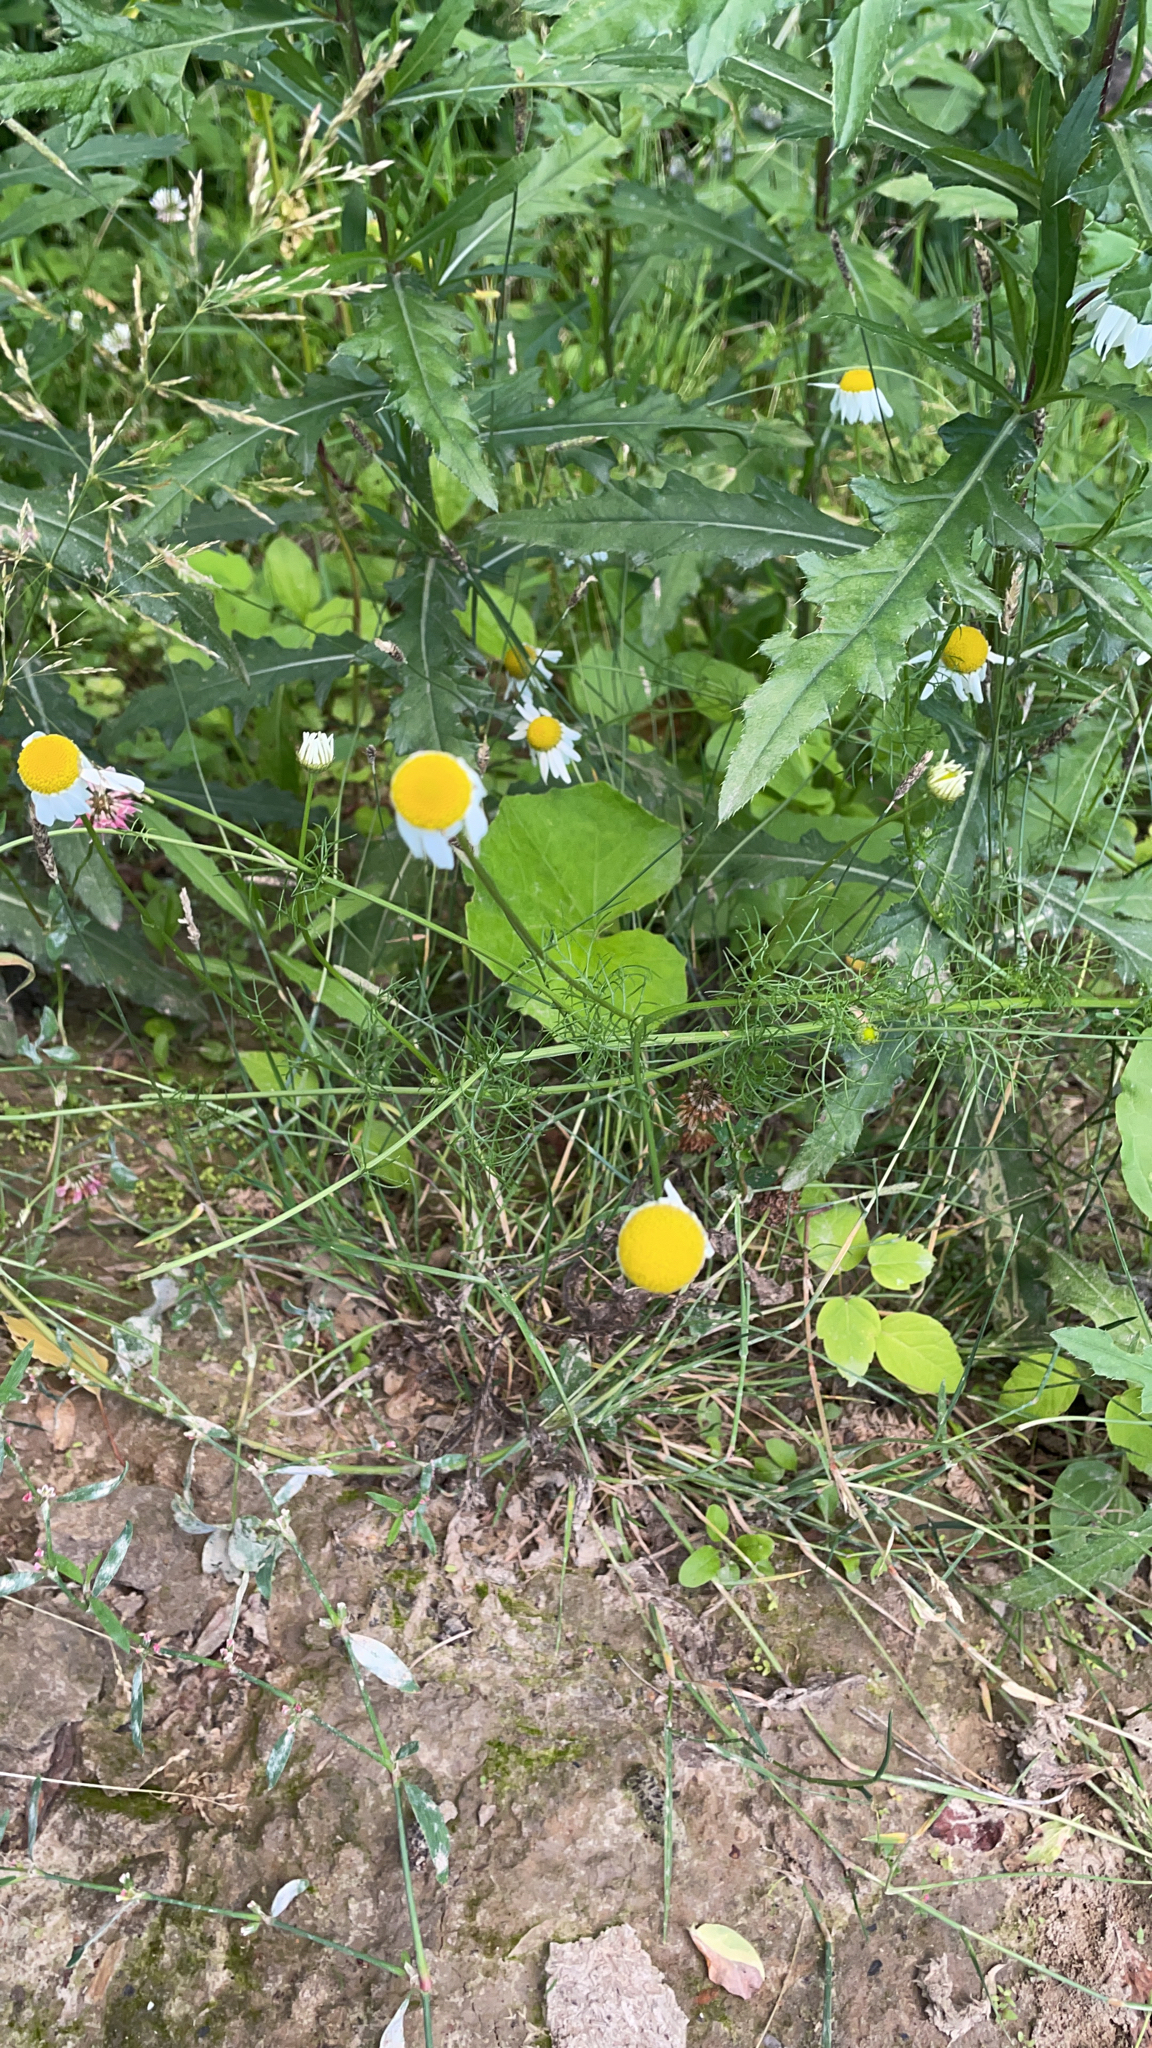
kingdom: Plantae
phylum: Tracheophyta
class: Magnoliopsida
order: Asterales
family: Asteraceae
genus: Tripleurospermum
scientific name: Tripleurospermum inodorum
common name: Scentless mayweed
